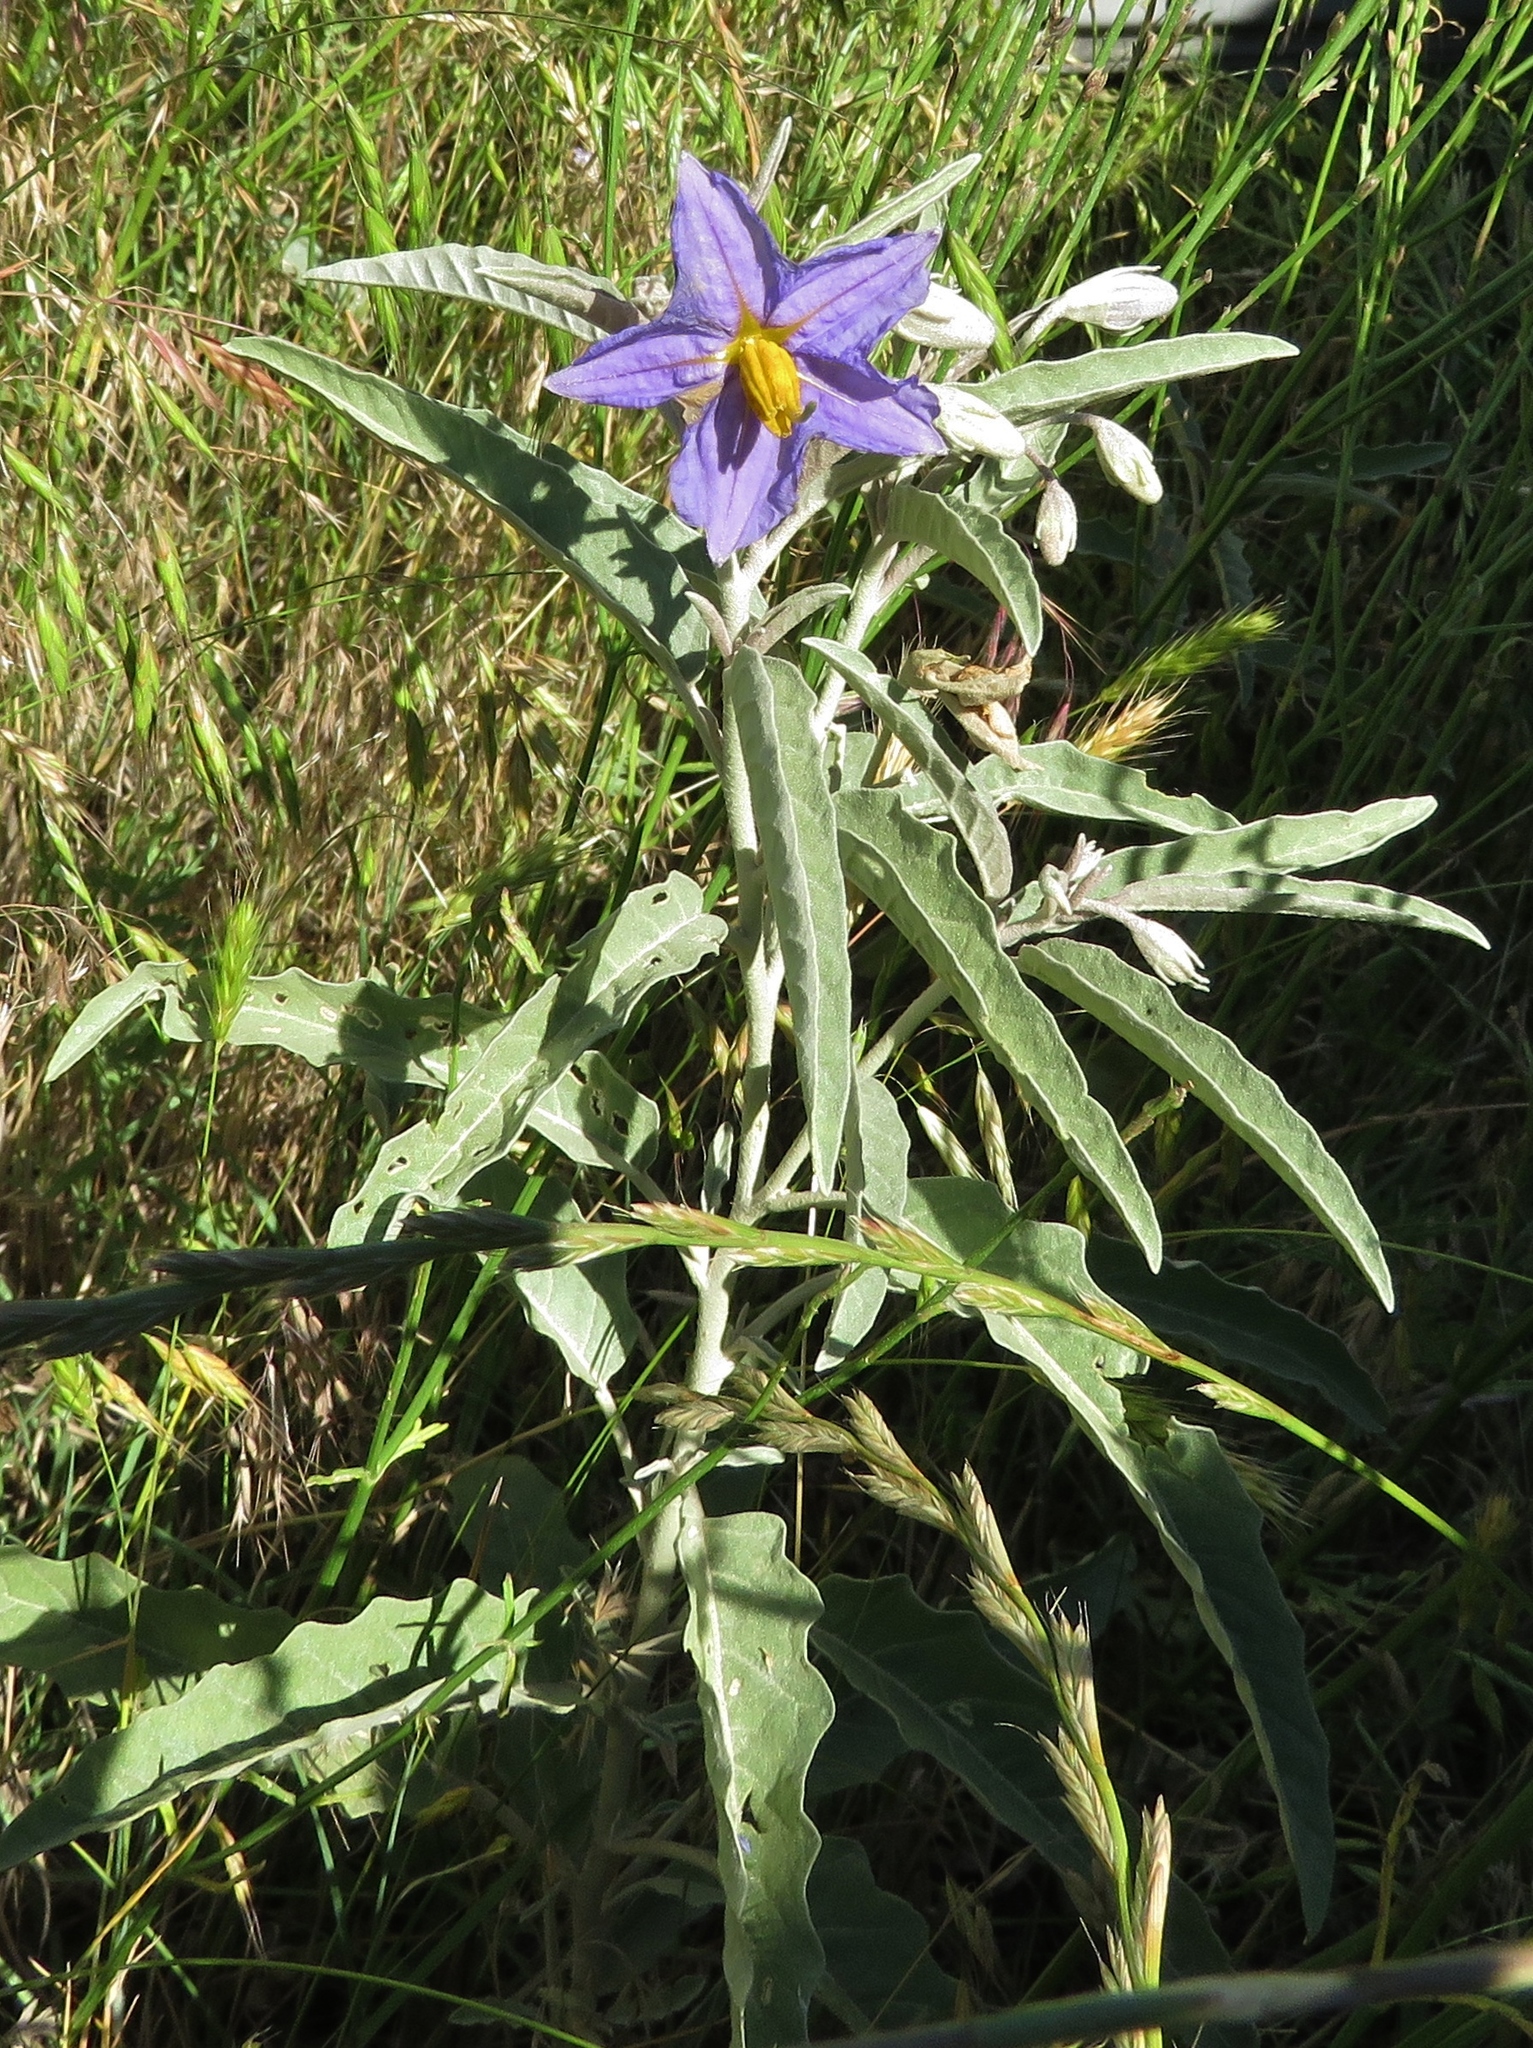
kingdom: Plantae
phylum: Tracheophyta
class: Magnoliopsida
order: Solanales
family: Solanaceae
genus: Solanum
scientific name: Solanum elaeagnifolium
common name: Silverleaf nightshade
